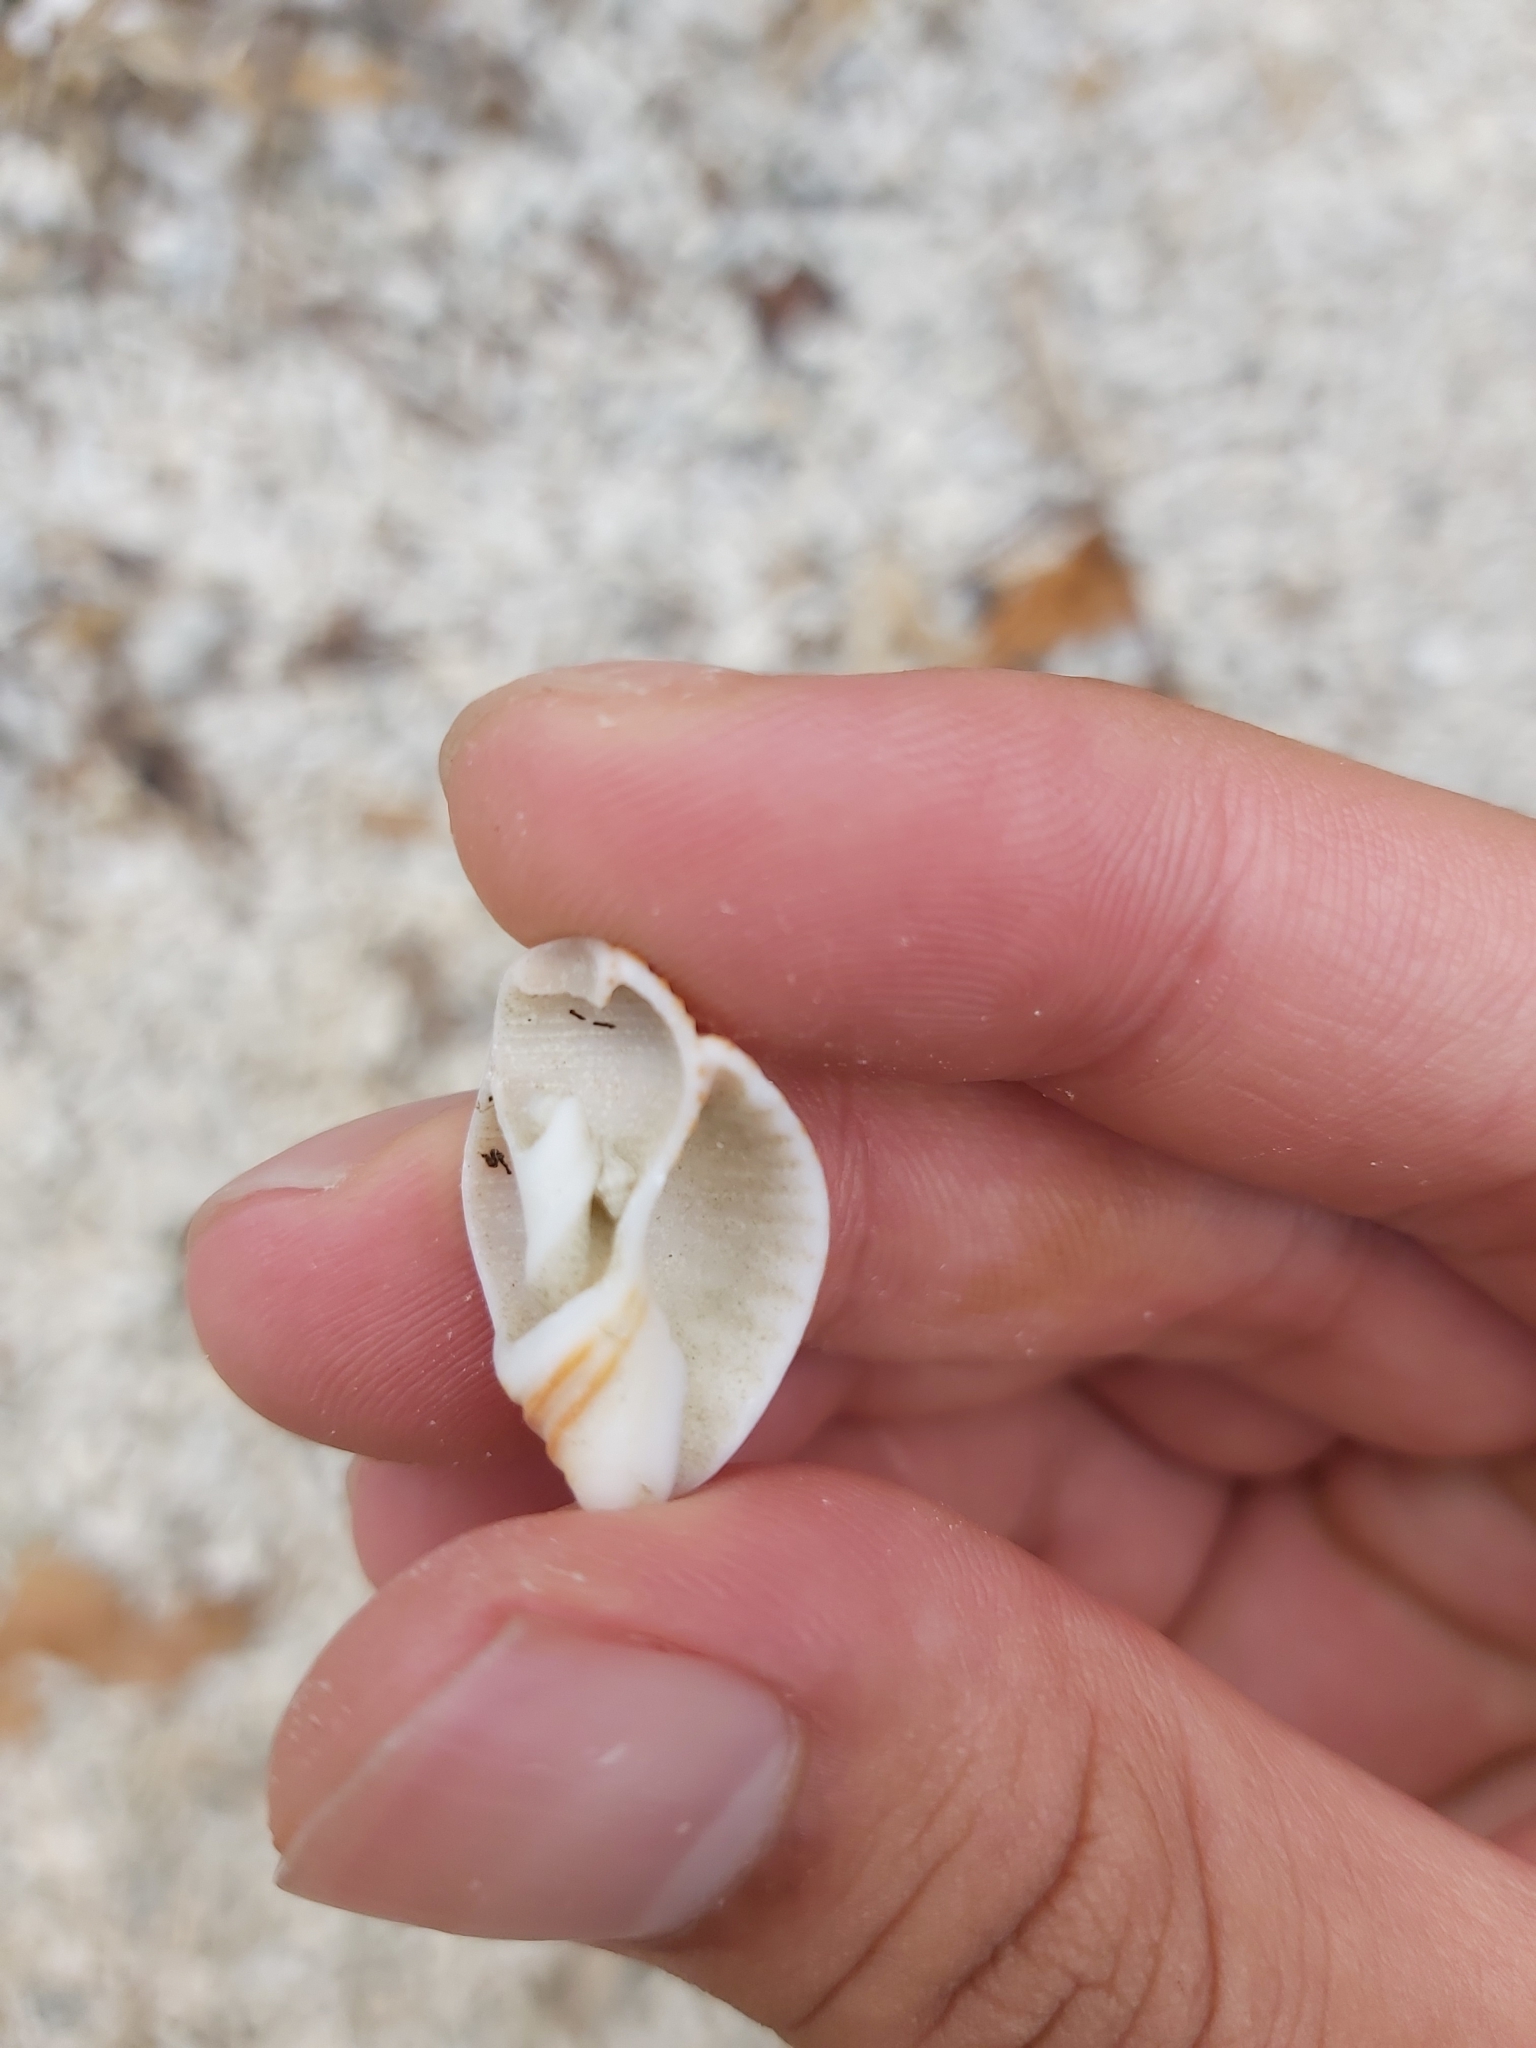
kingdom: Animalia
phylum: Mollusca
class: Gastropoda
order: Neogastropoda
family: Pisaniidae
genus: Pollia
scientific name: Pollia undosa
